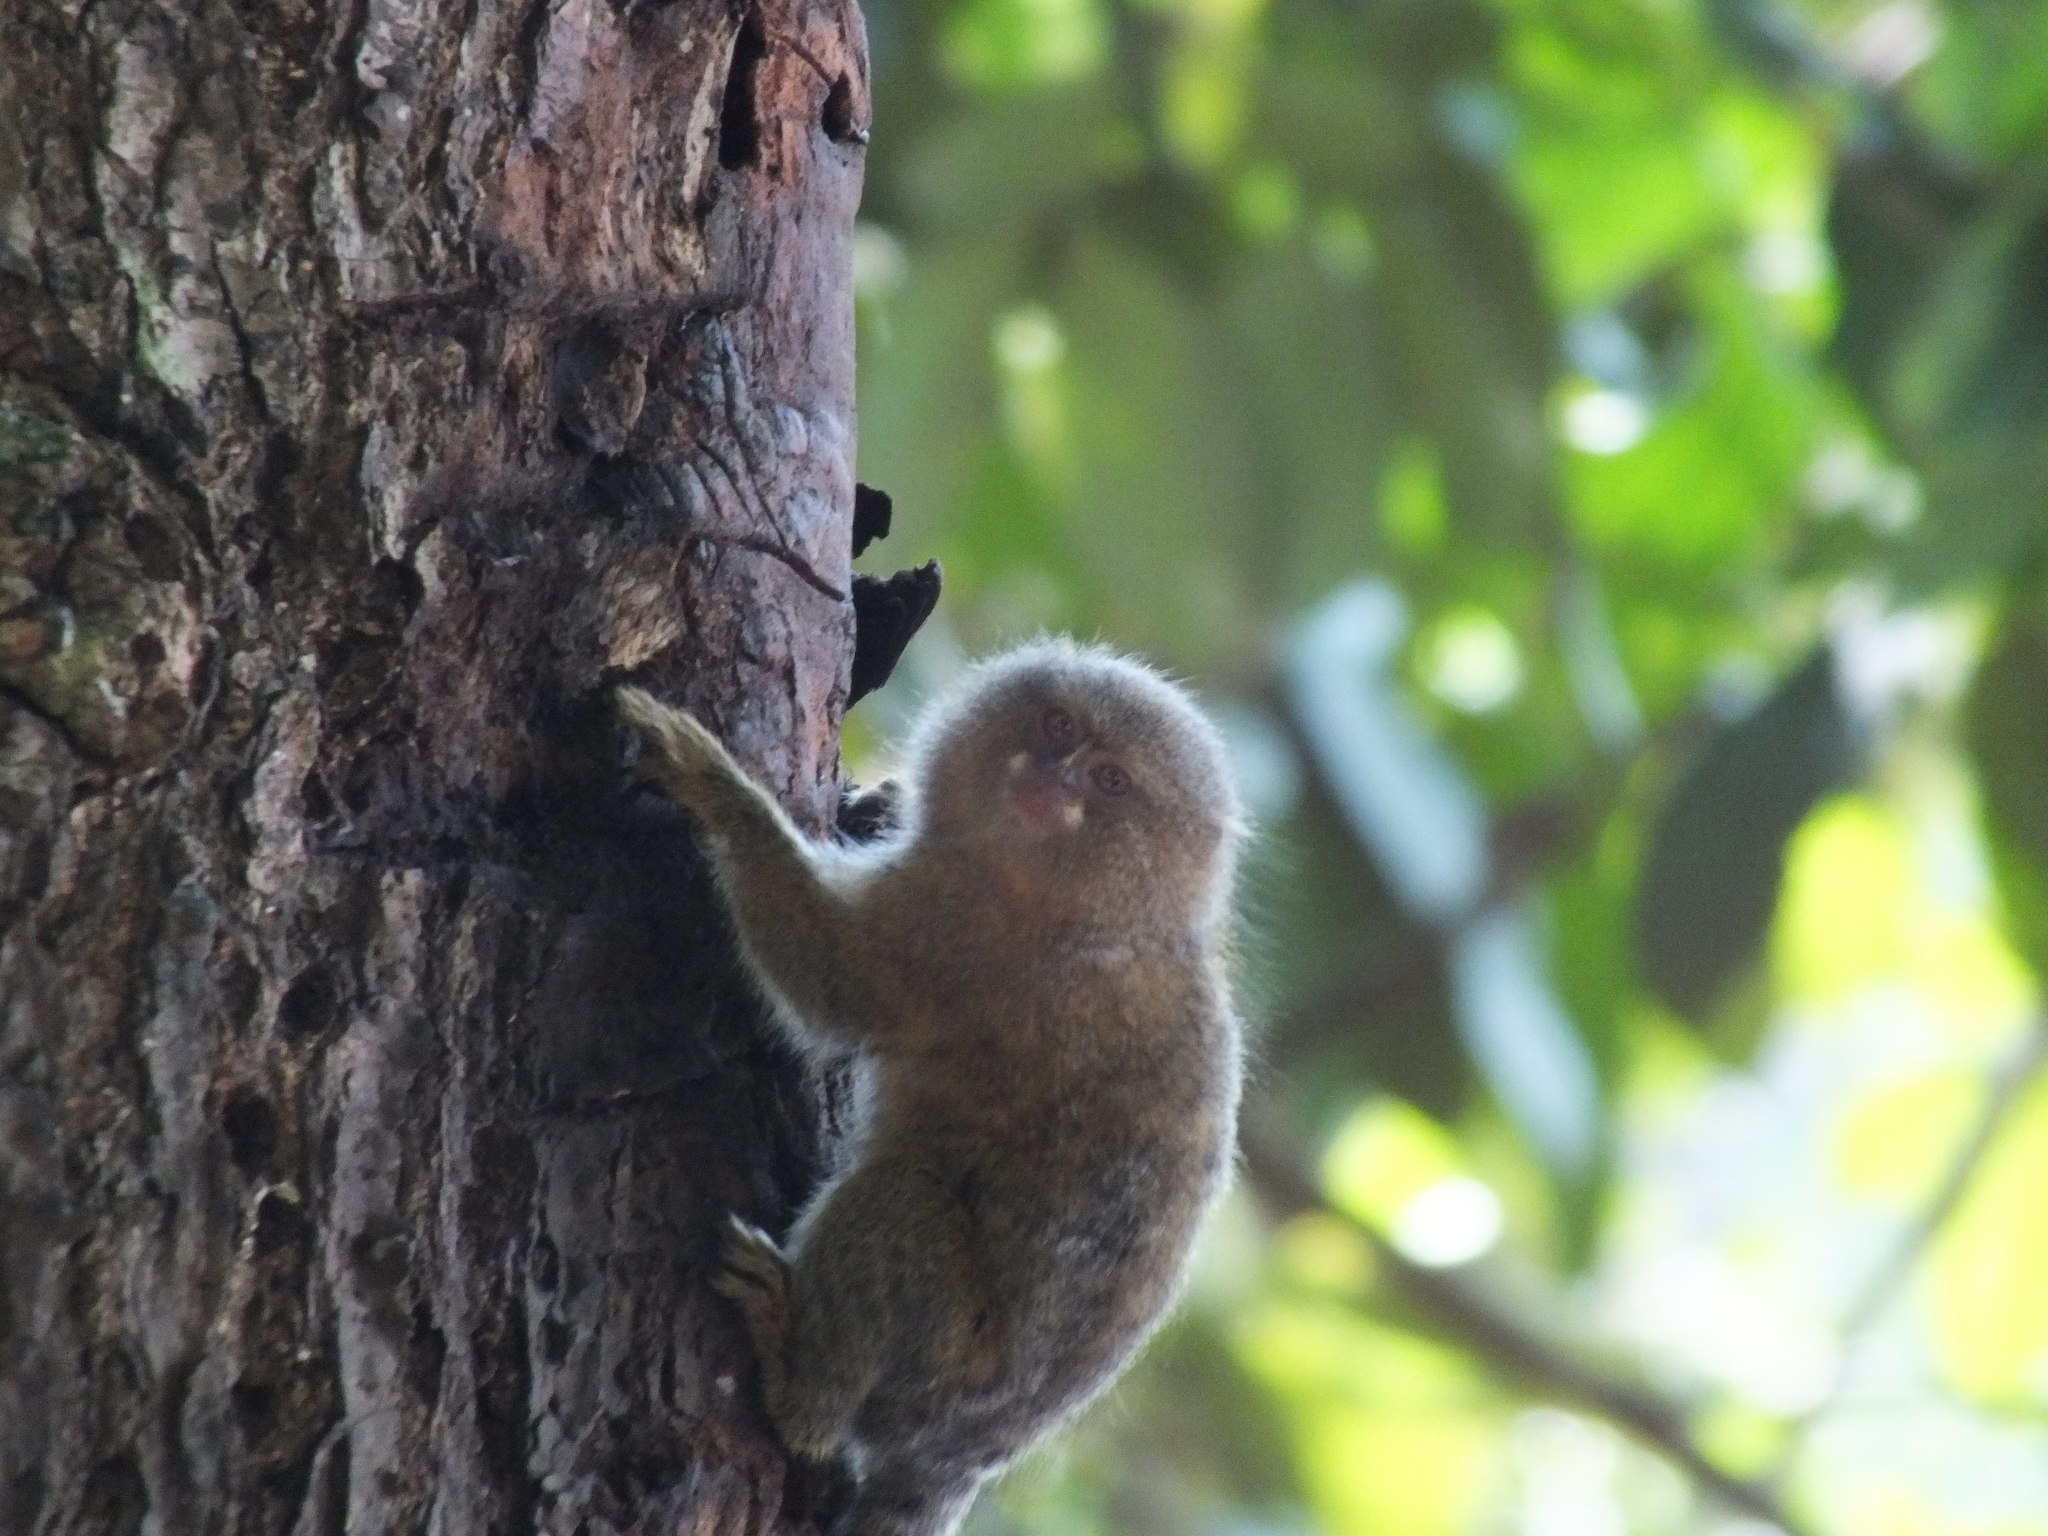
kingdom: Animalia
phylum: Chordata
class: Mammalia
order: Primates
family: Callitrichidae
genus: Cebuella
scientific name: Cebuella niveiventris
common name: Eastern pygmy marmoset
